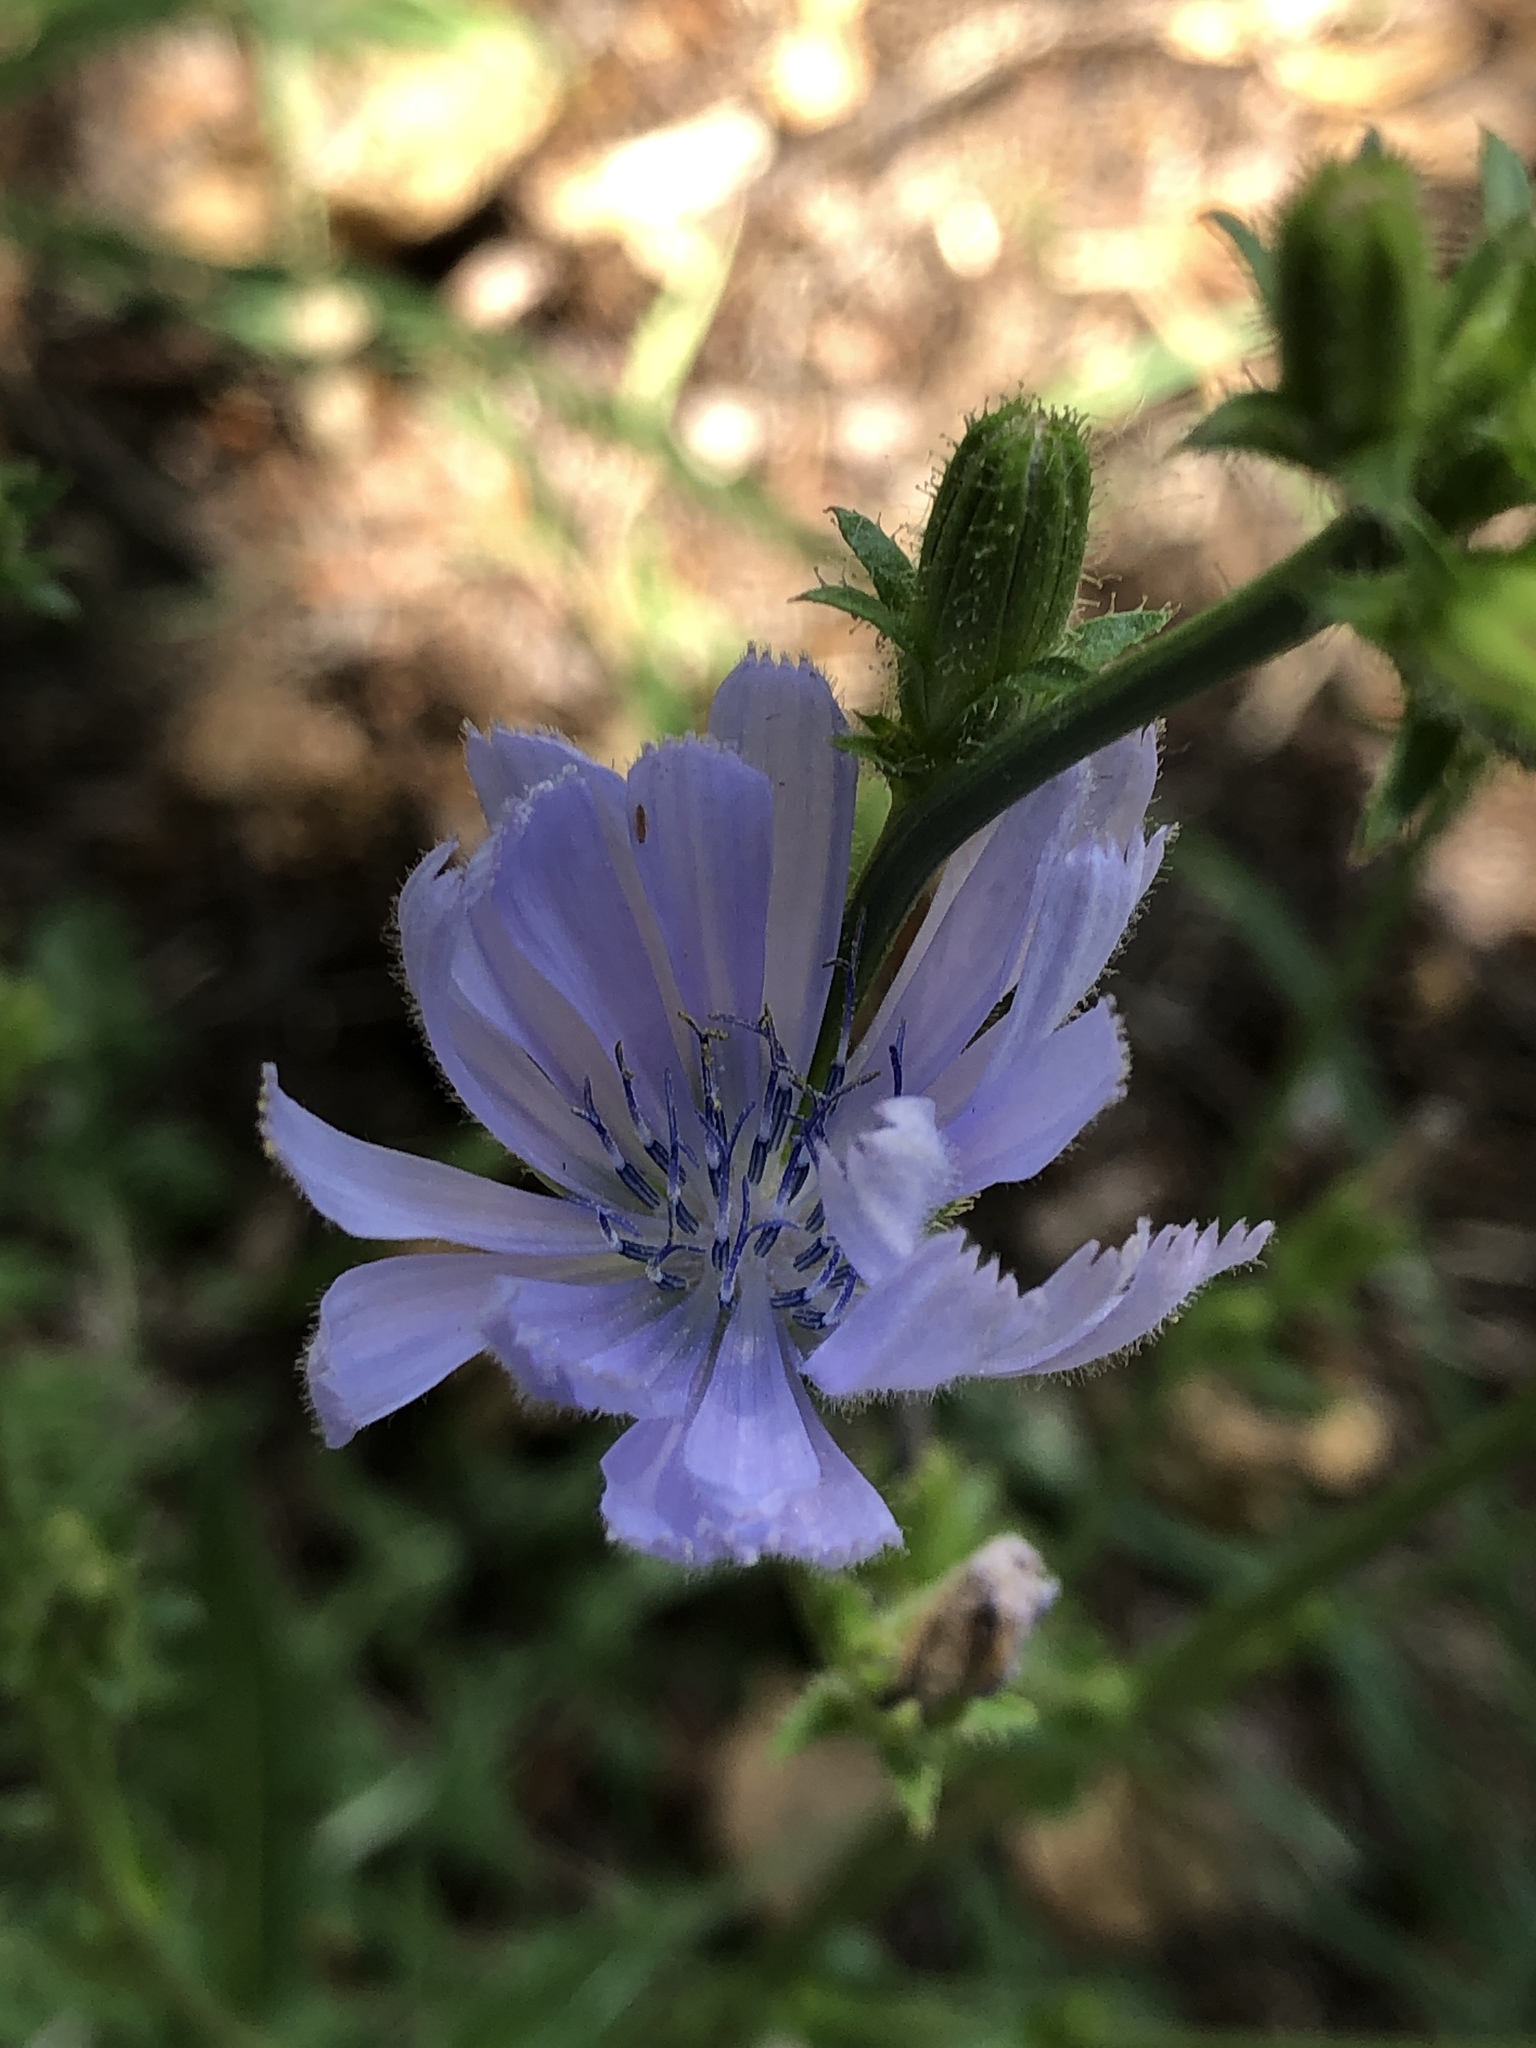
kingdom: Plantae
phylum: Tracheophyta
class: Magnoliopsida
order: Asterales
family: Asteraceae
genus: Cichorium
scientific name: Cichorium intybus
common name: Chicory
